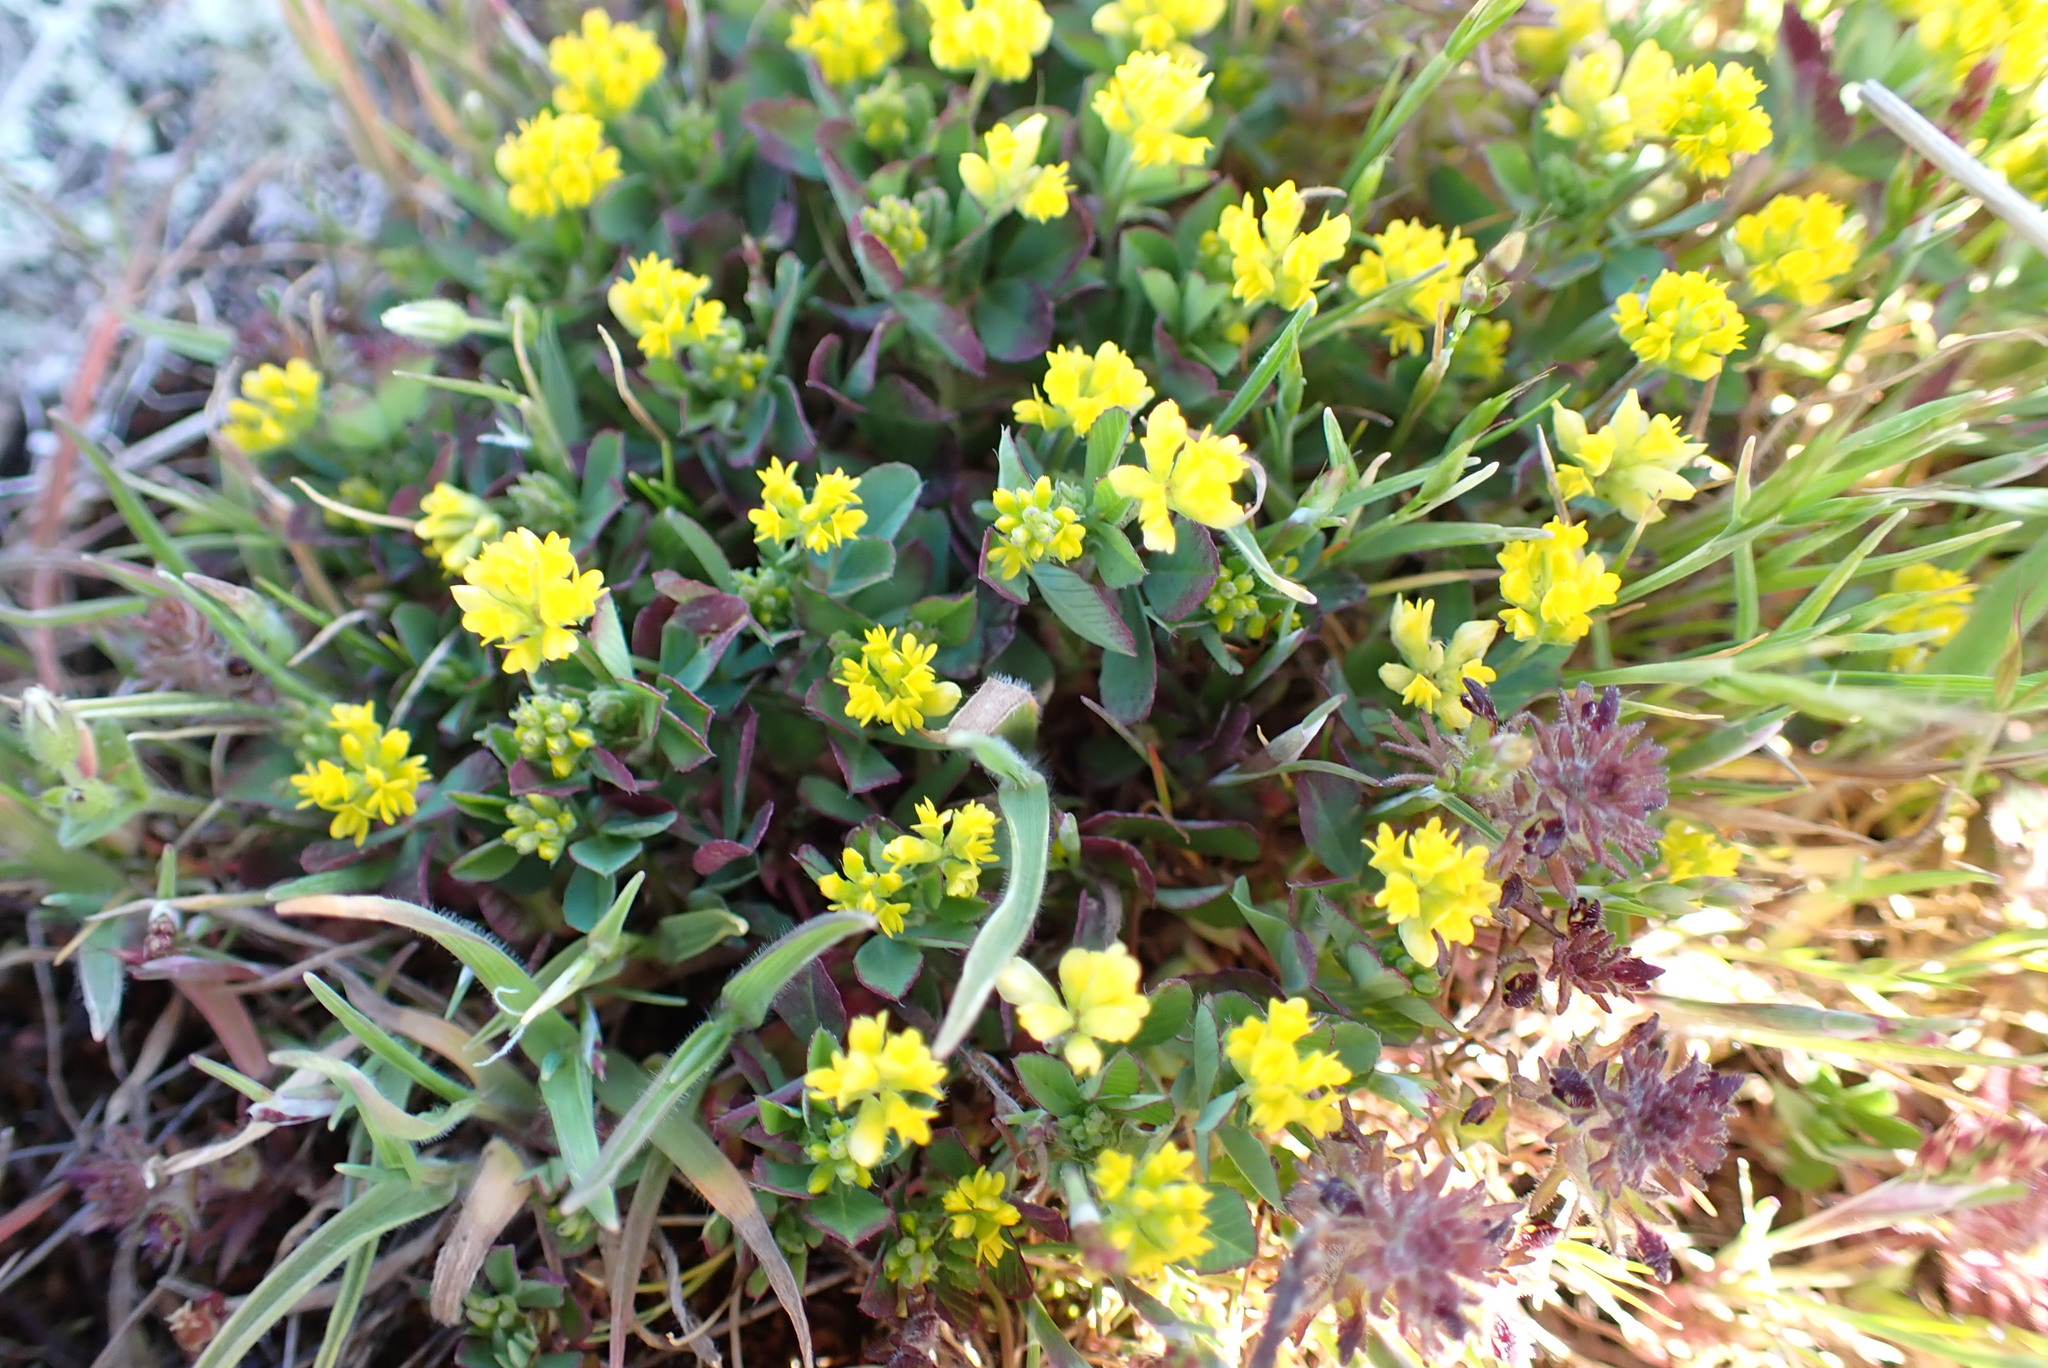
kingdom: Plantae
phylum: Tracheophyta
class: Magnoliopsida
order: Fabales
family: Fabaceae
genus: Trifolium
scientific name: Trifolium dubium
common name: Suckling clover
